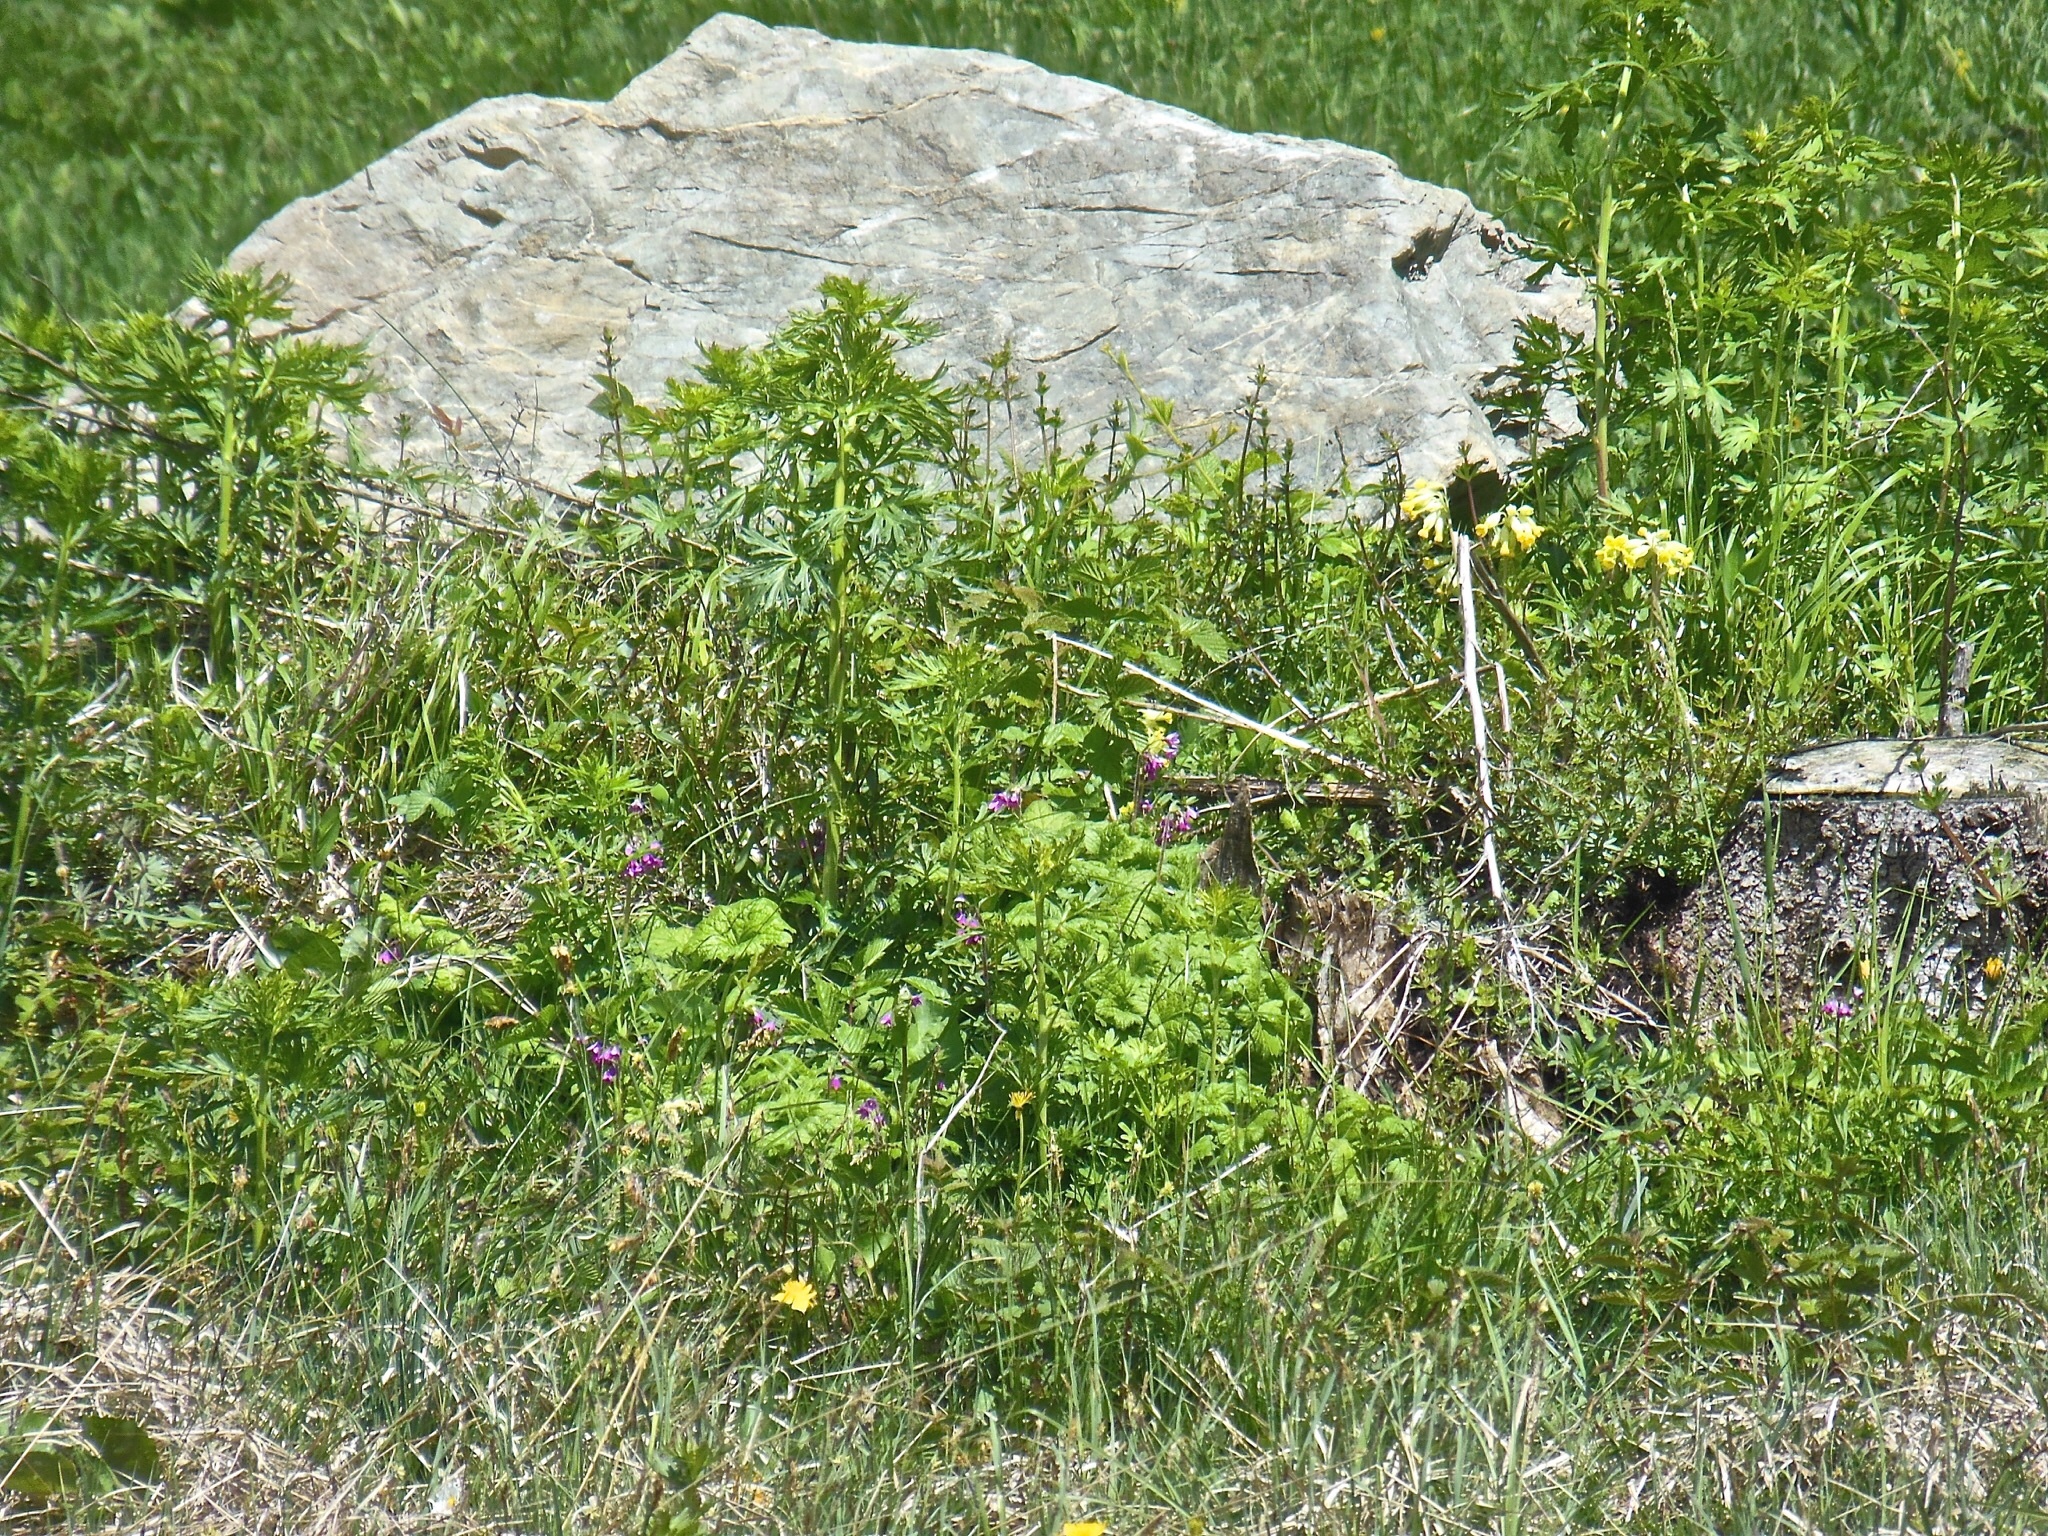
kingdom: Plantae
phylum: Tracheophyta
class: Magnoliopsida
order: Ericales
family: Primulaceae
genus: Primula
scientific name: Primula matthioli
